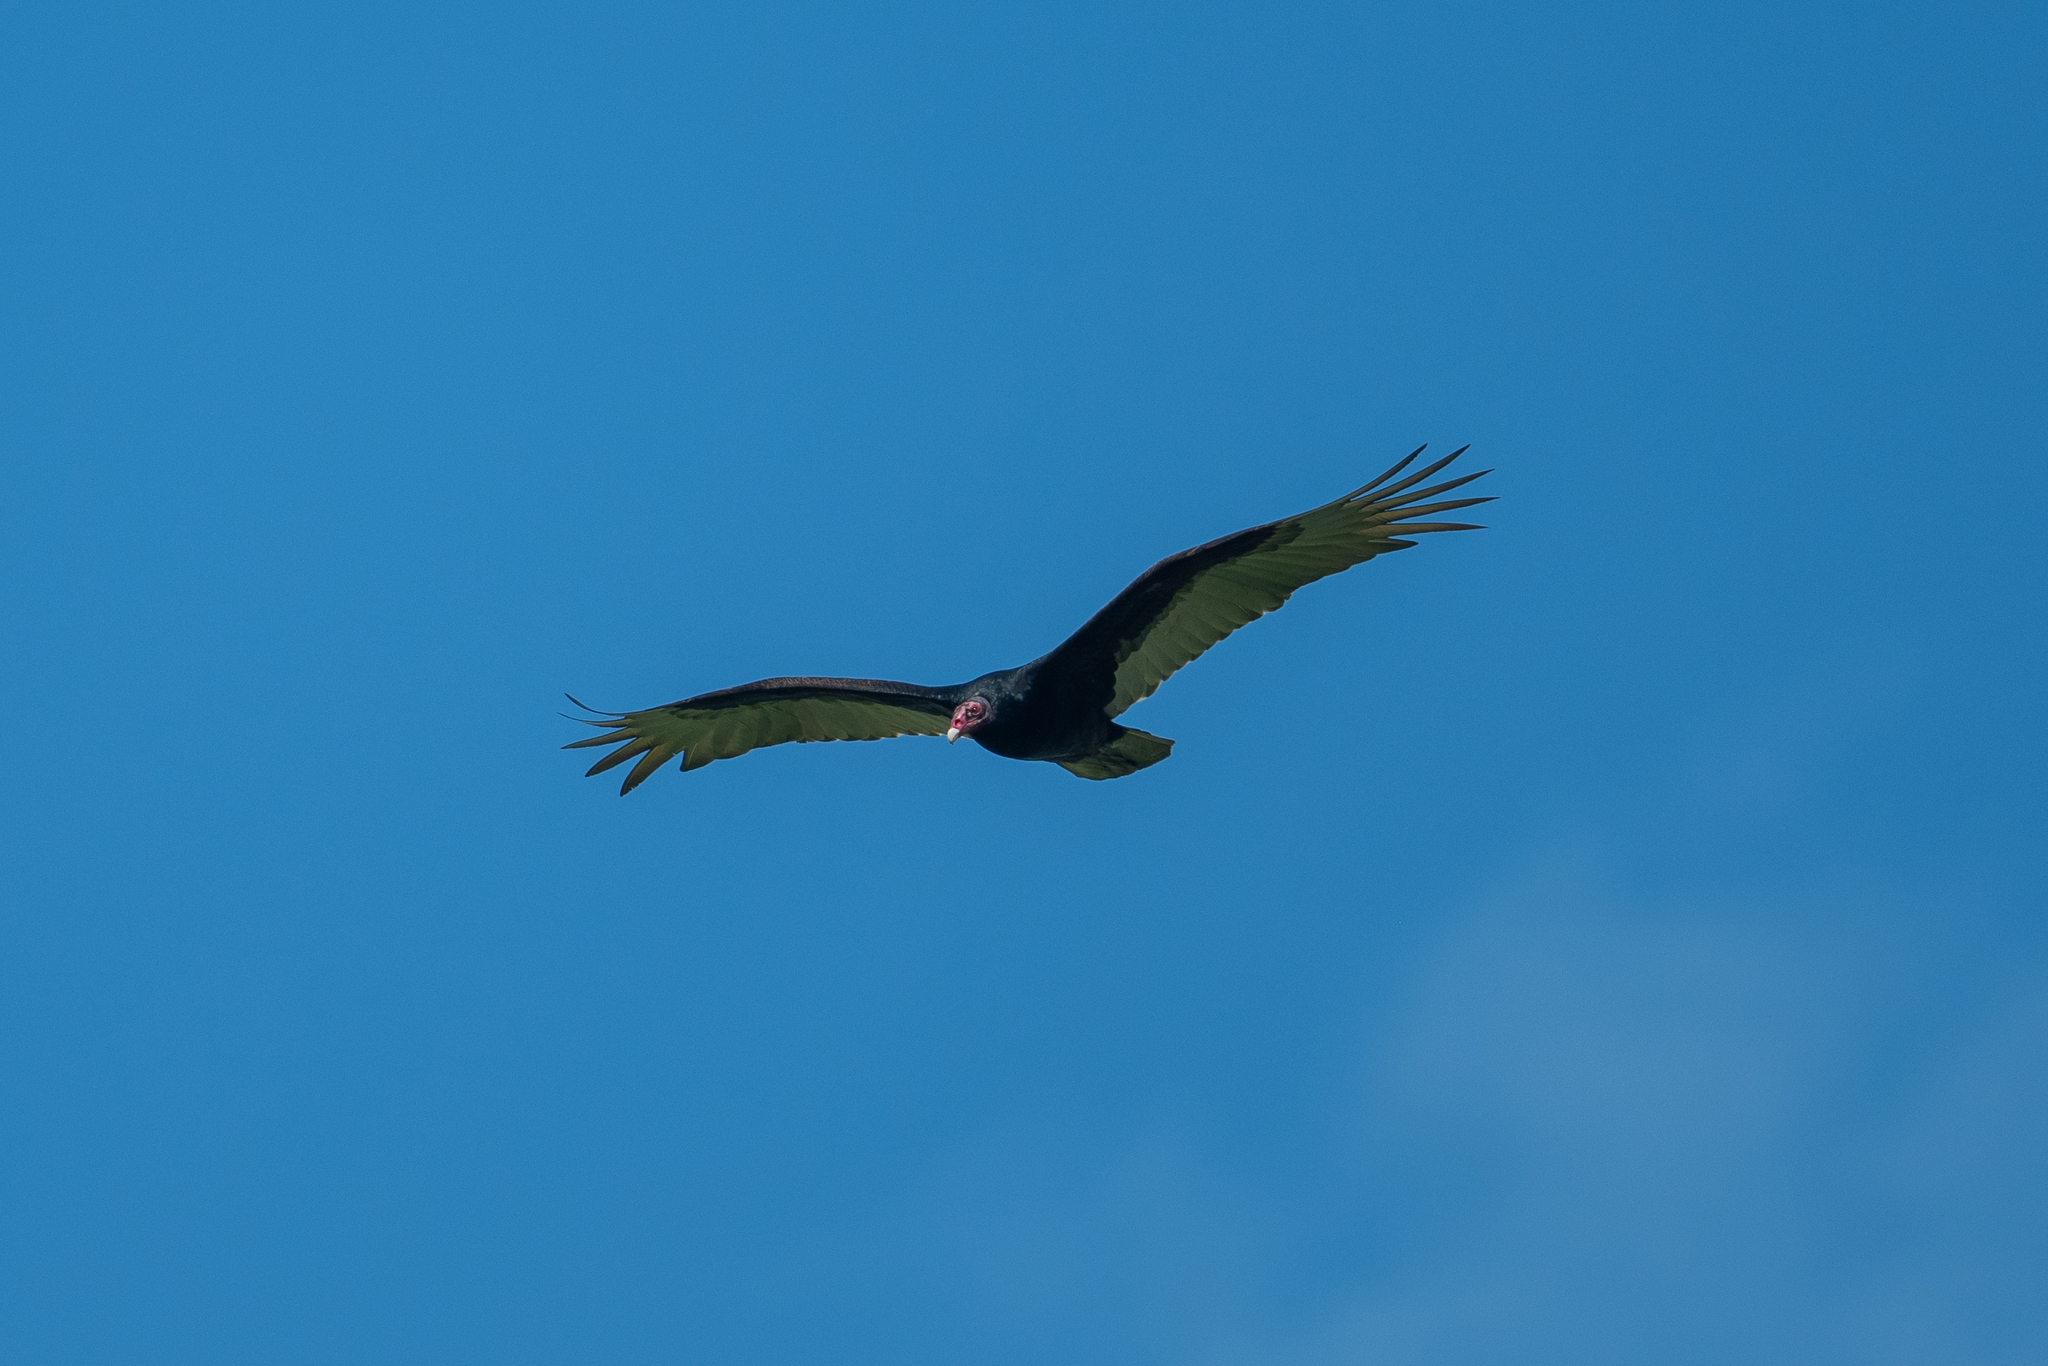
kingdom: Animalia
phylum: Chordata
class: Aves
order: Accipitriformes
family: Cathartidae
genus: Cathartes
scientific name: Cathartes aura
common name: Turkey vulture
